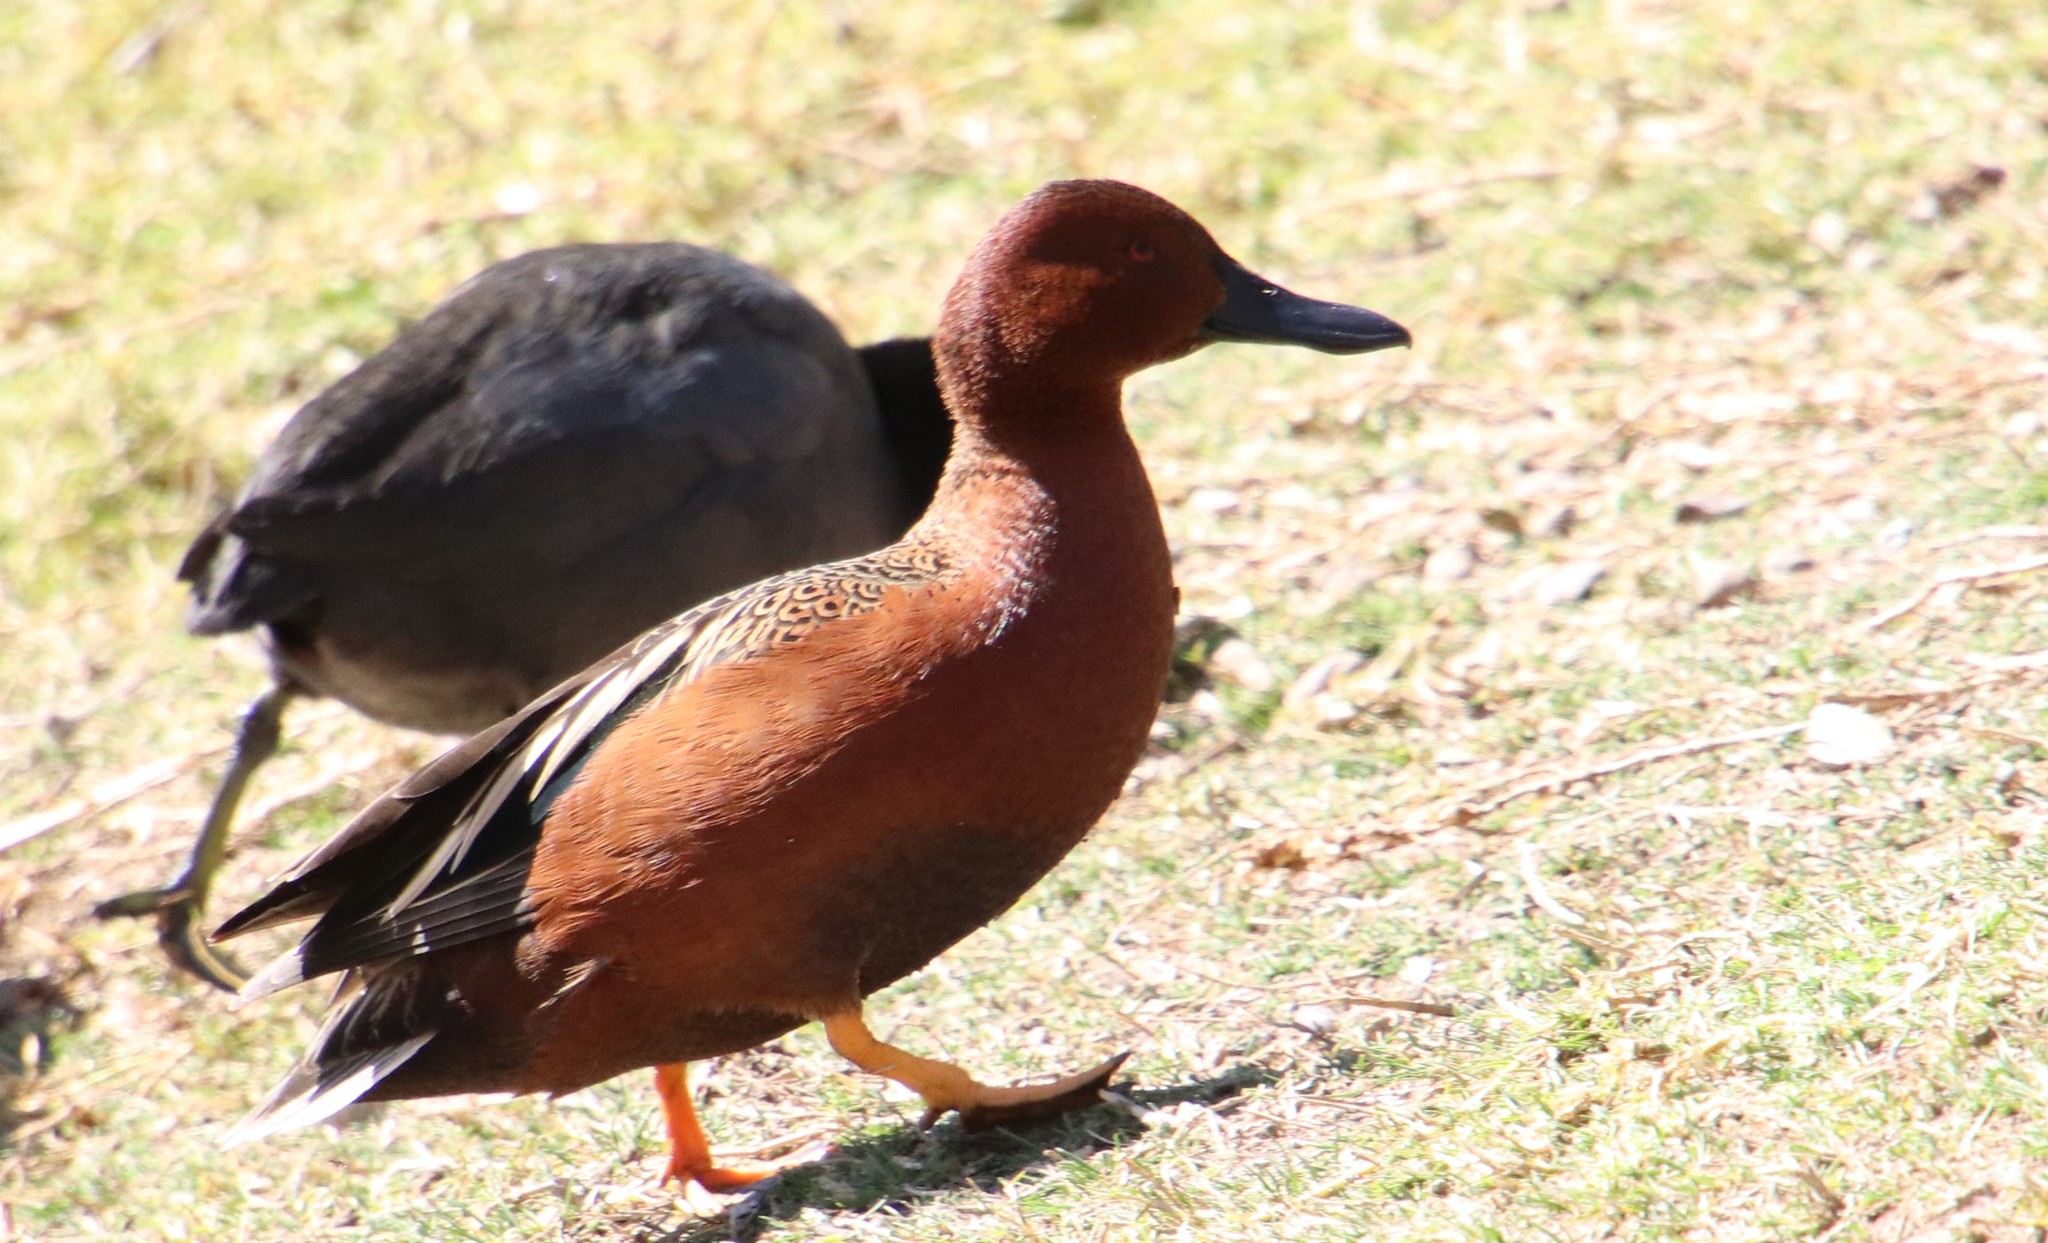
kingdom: Animalia
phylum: Chordata
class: Aves
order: Anseriformes
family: Anatidae
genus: Spatula
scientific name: Spatula cyanoptera
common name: Cinnamon teal
